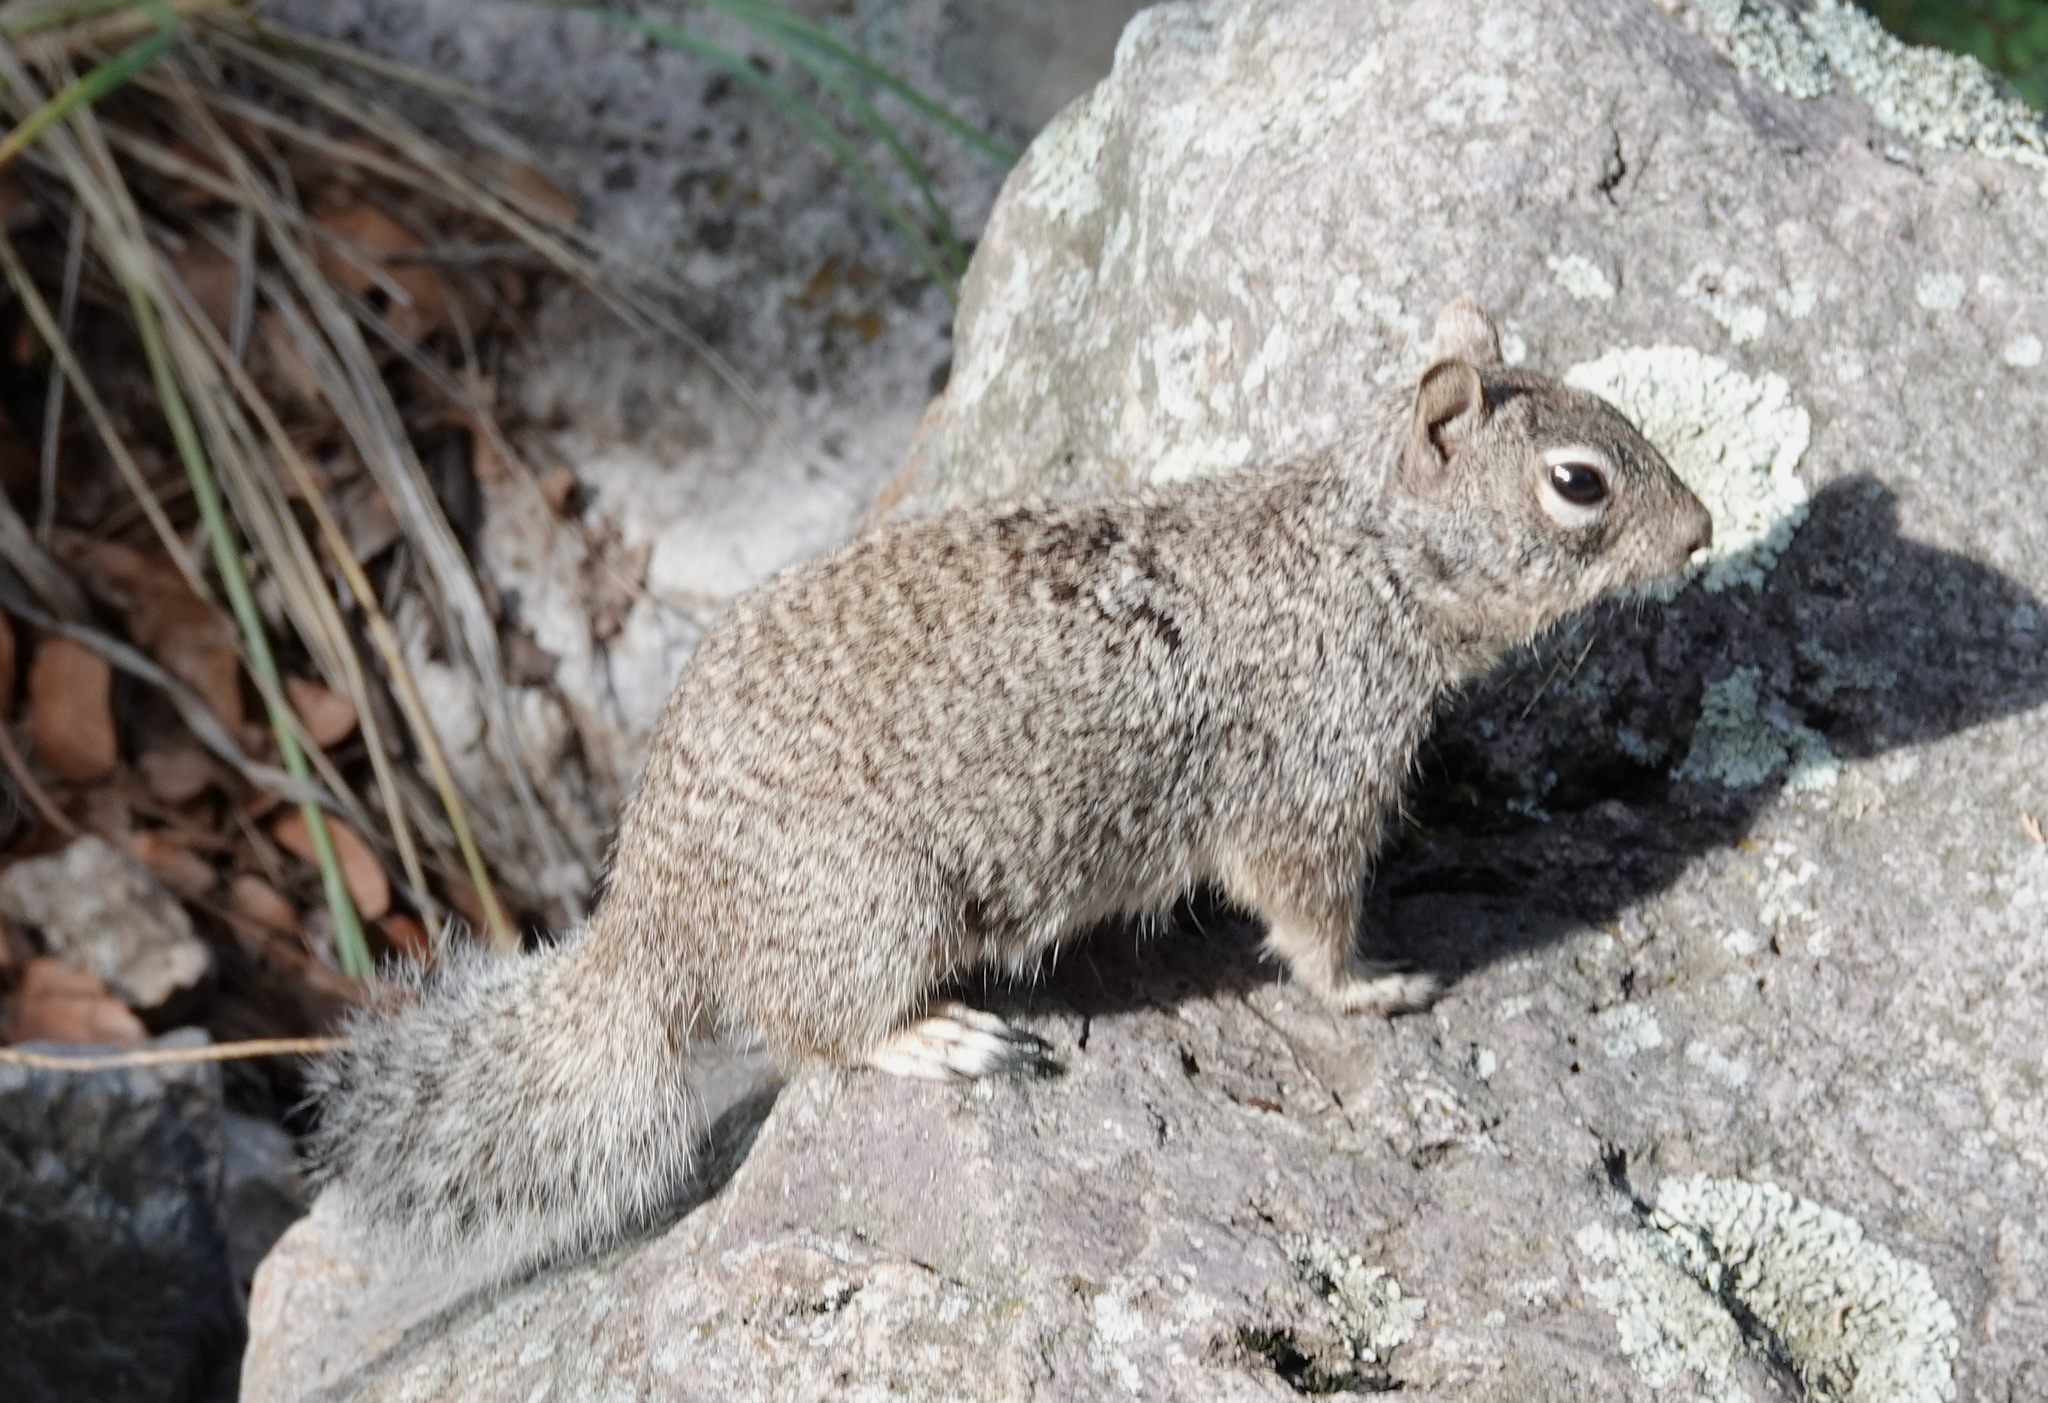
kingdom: Animalia
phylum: Chordata
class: Mammalia
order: Rodentia
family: Sciuridae
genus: Otospermophilus
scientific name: Otospermophilus variegatus
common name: Rock squirrel
